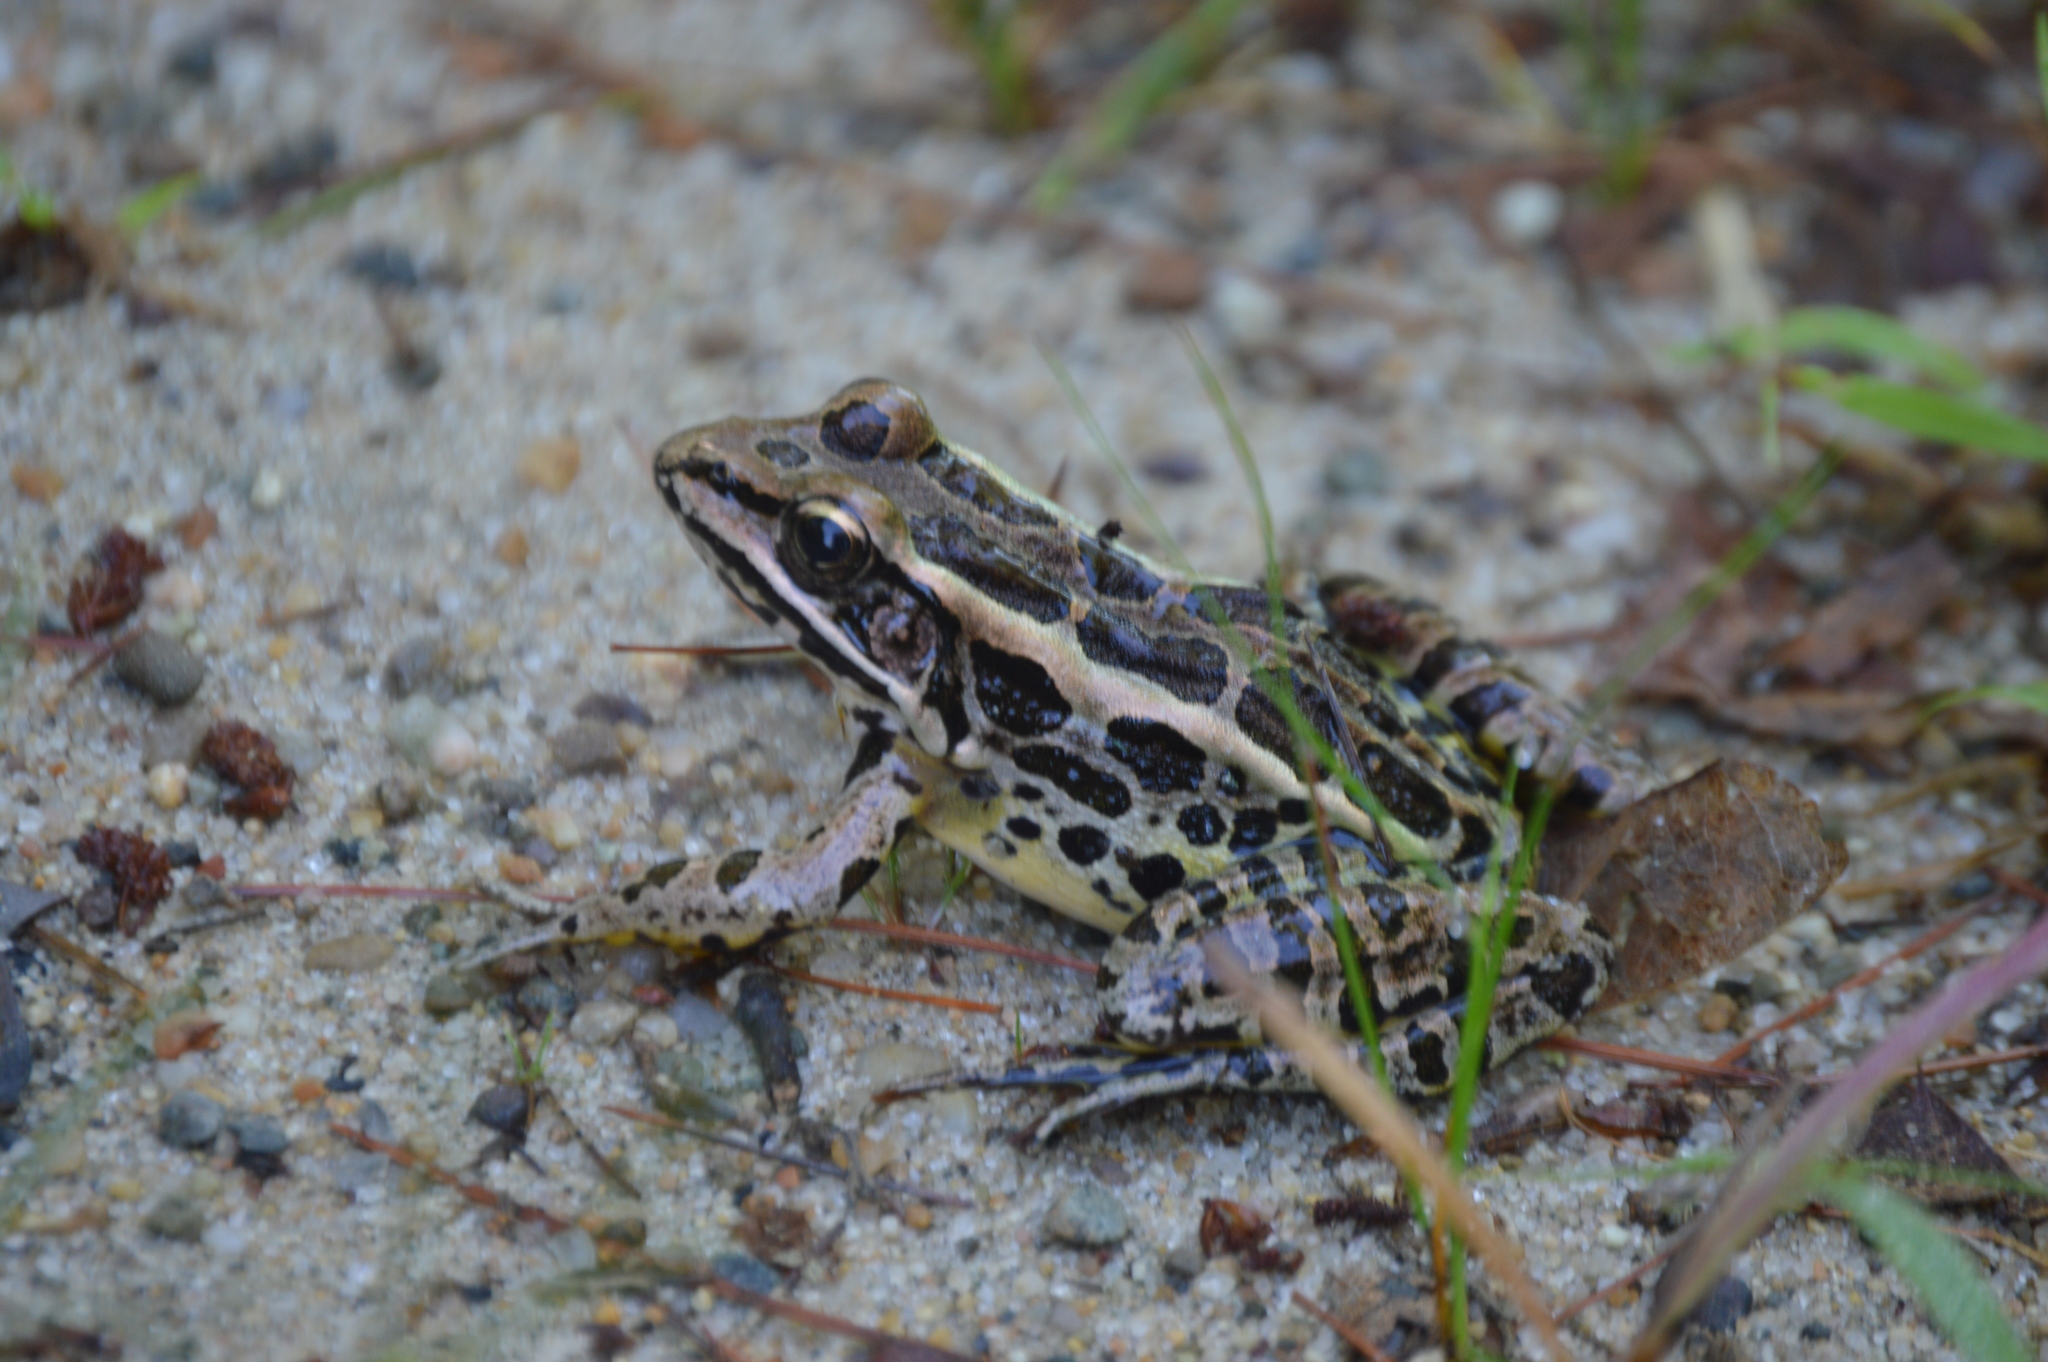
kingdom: Animalia
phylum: Chordata
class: Amphibia
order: Anura
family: Ranidae
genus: Lithobates
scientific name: Lithobates palustris
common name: Pickerel frog
